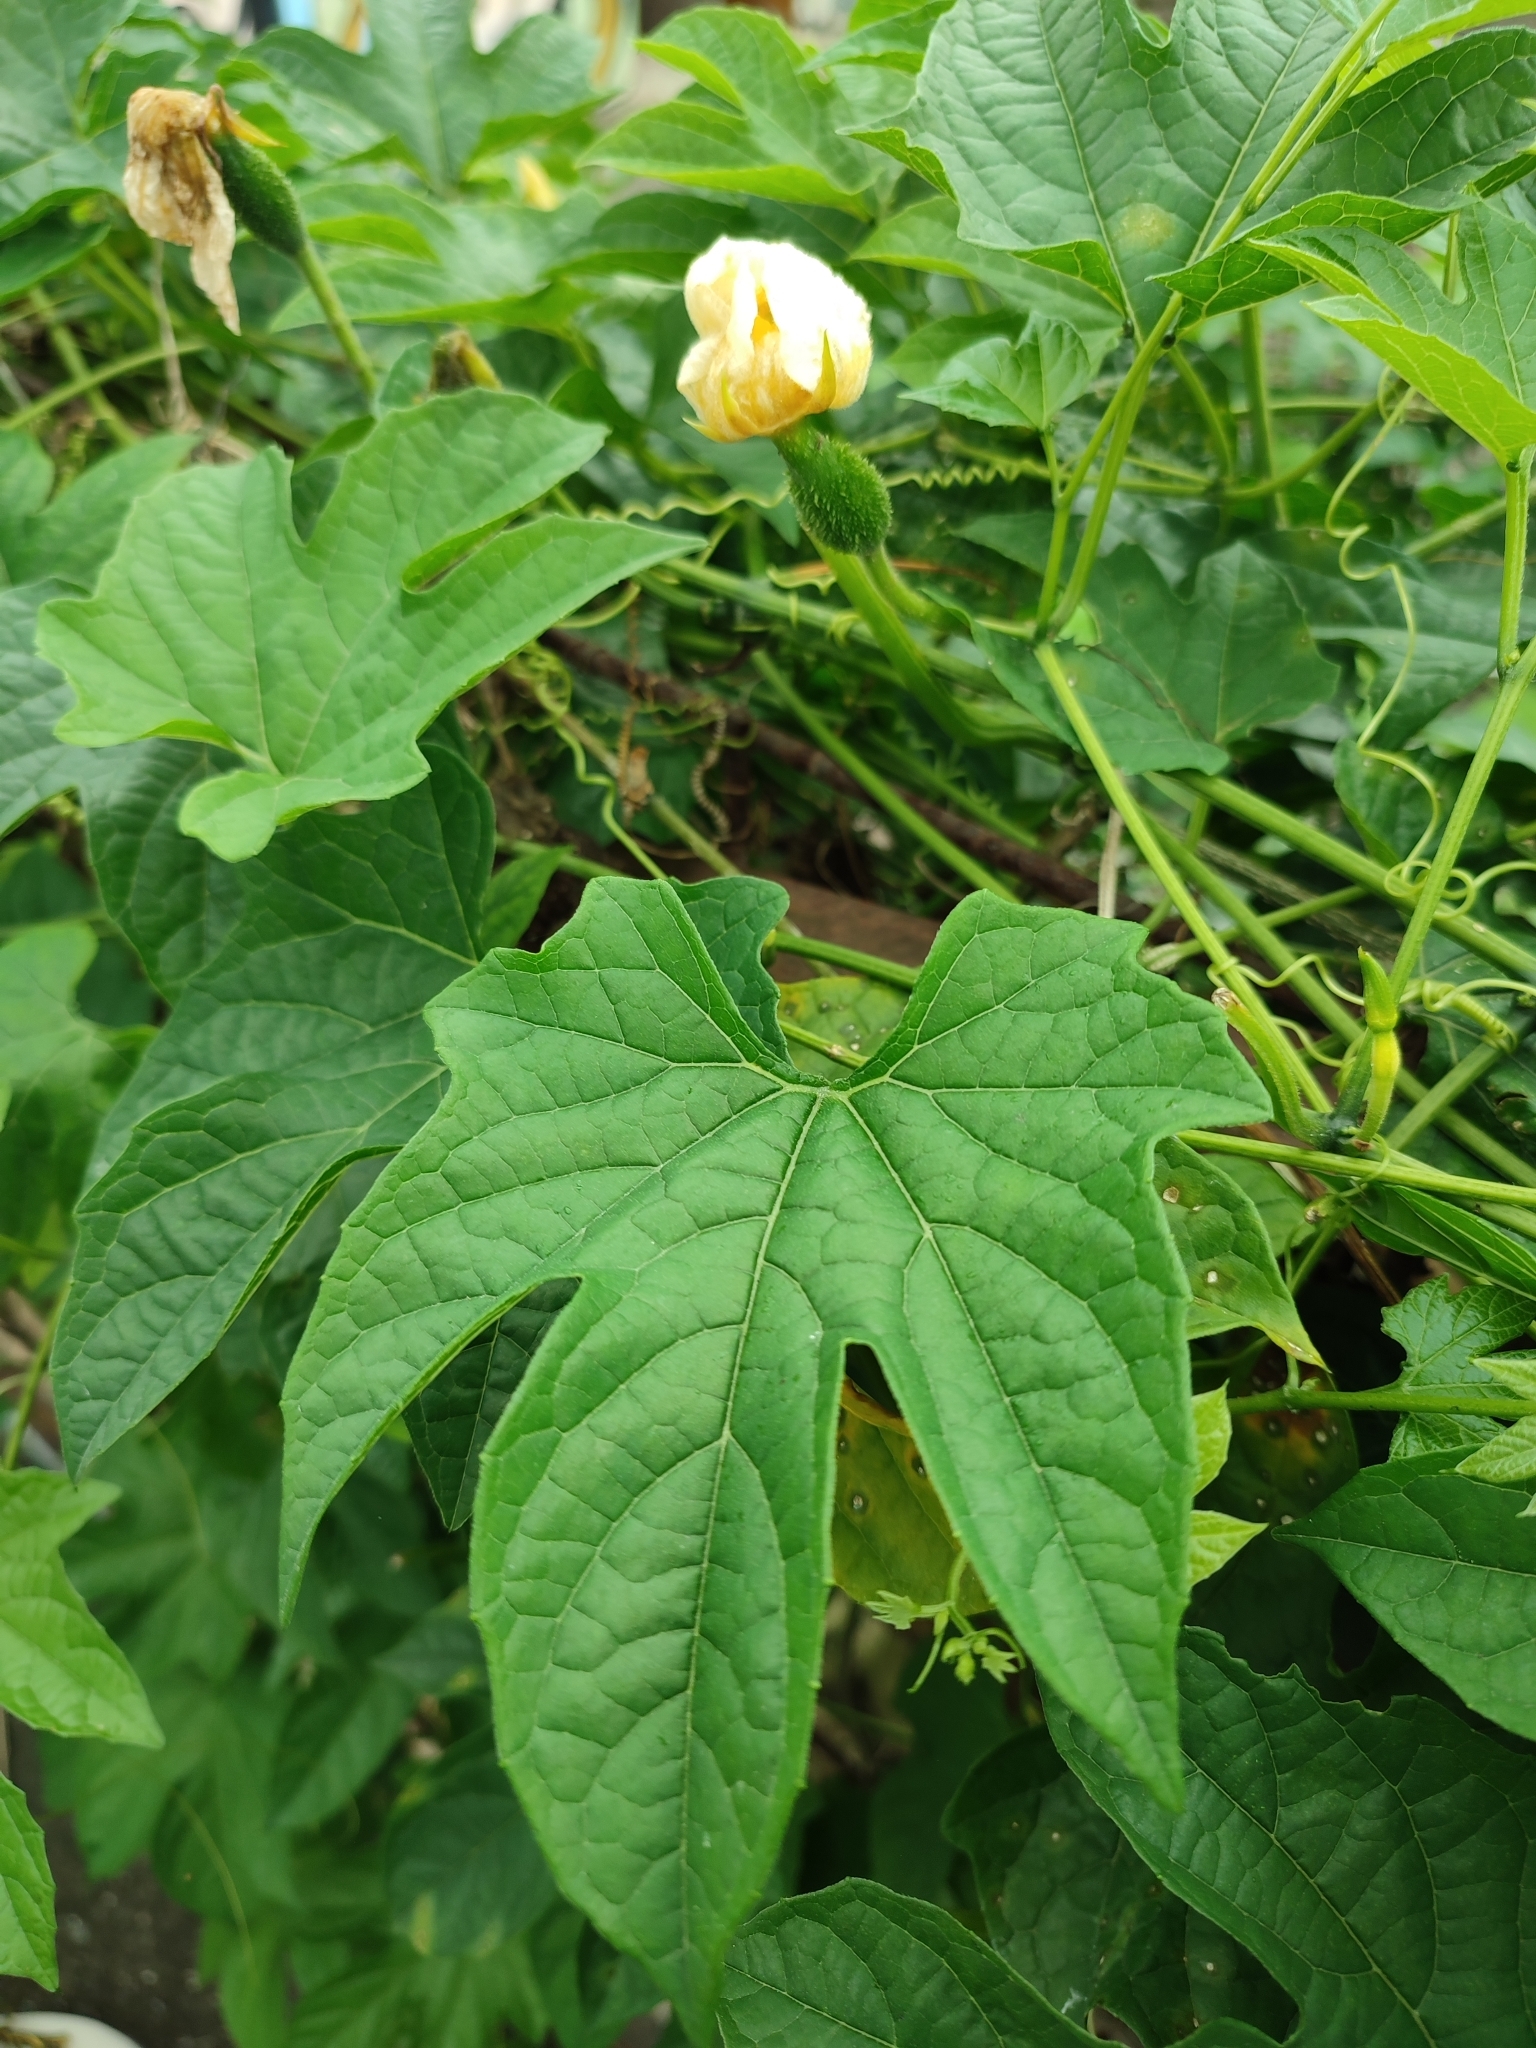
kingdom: Plantae
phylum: Tracheophyta
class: Magnoliopsida
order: Cucurbitales
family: Cucurbitaceae
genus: Momordica
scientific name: Momordica cochinchinensis
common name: Chinese bitter-cucumber
